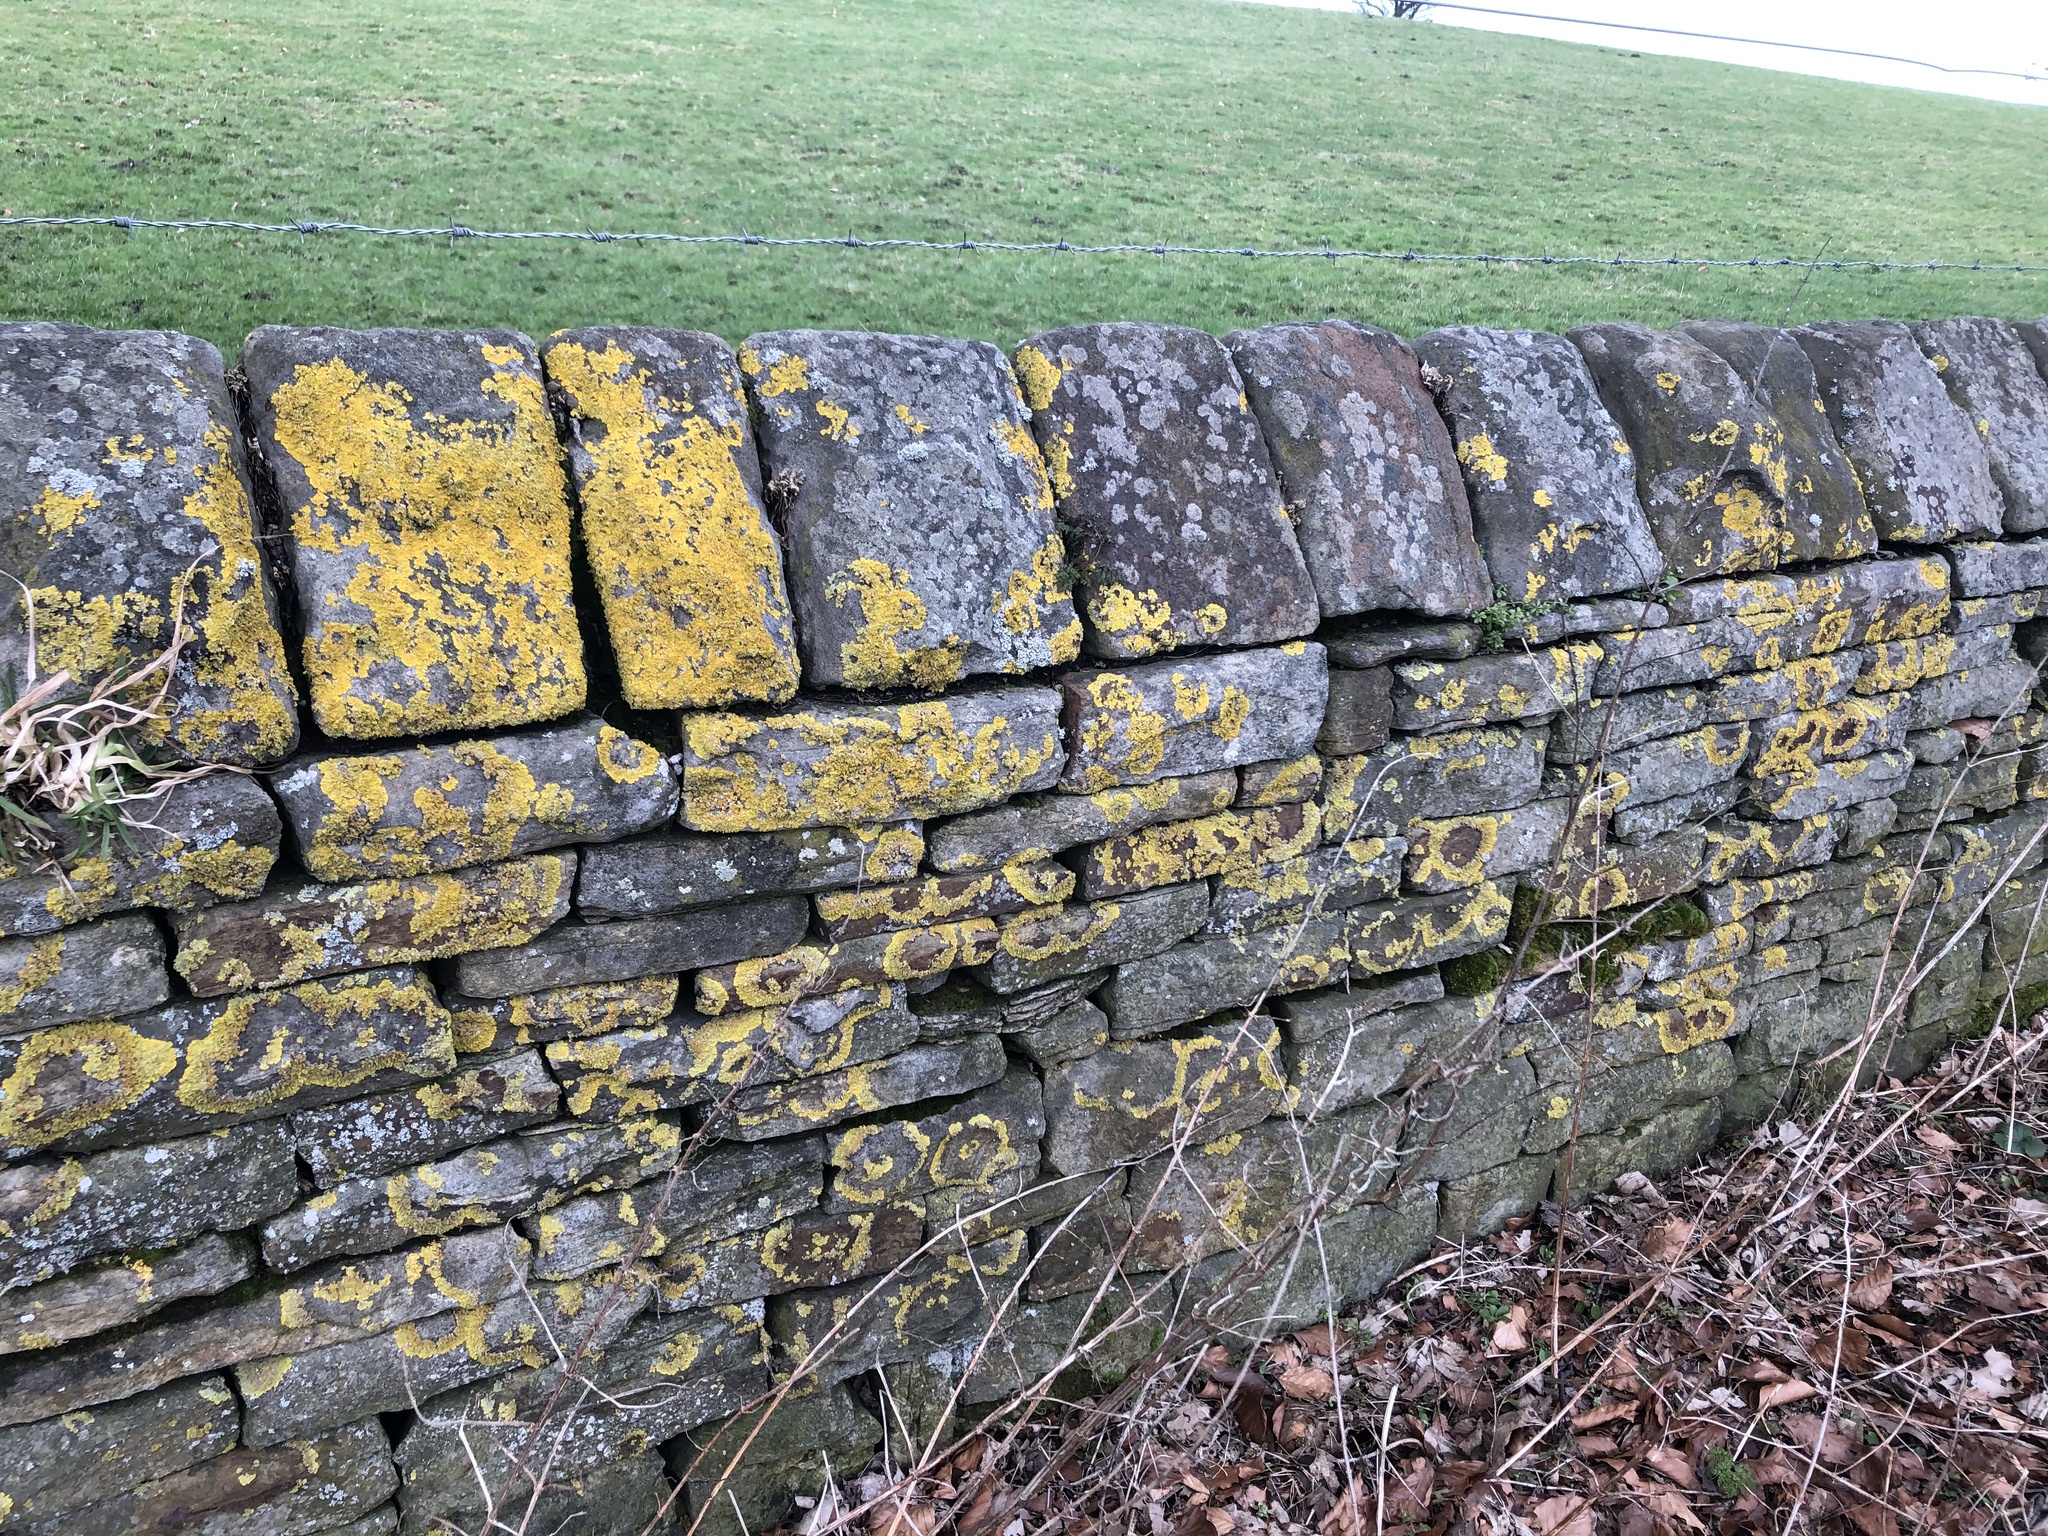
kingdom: Fungi
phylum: Ascomycota
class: Lecanoromycetes
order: Teloschistales
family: Teloschistaceae
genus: Xanthoria
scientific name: Xanthoria parietina
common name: Common orange lichen
